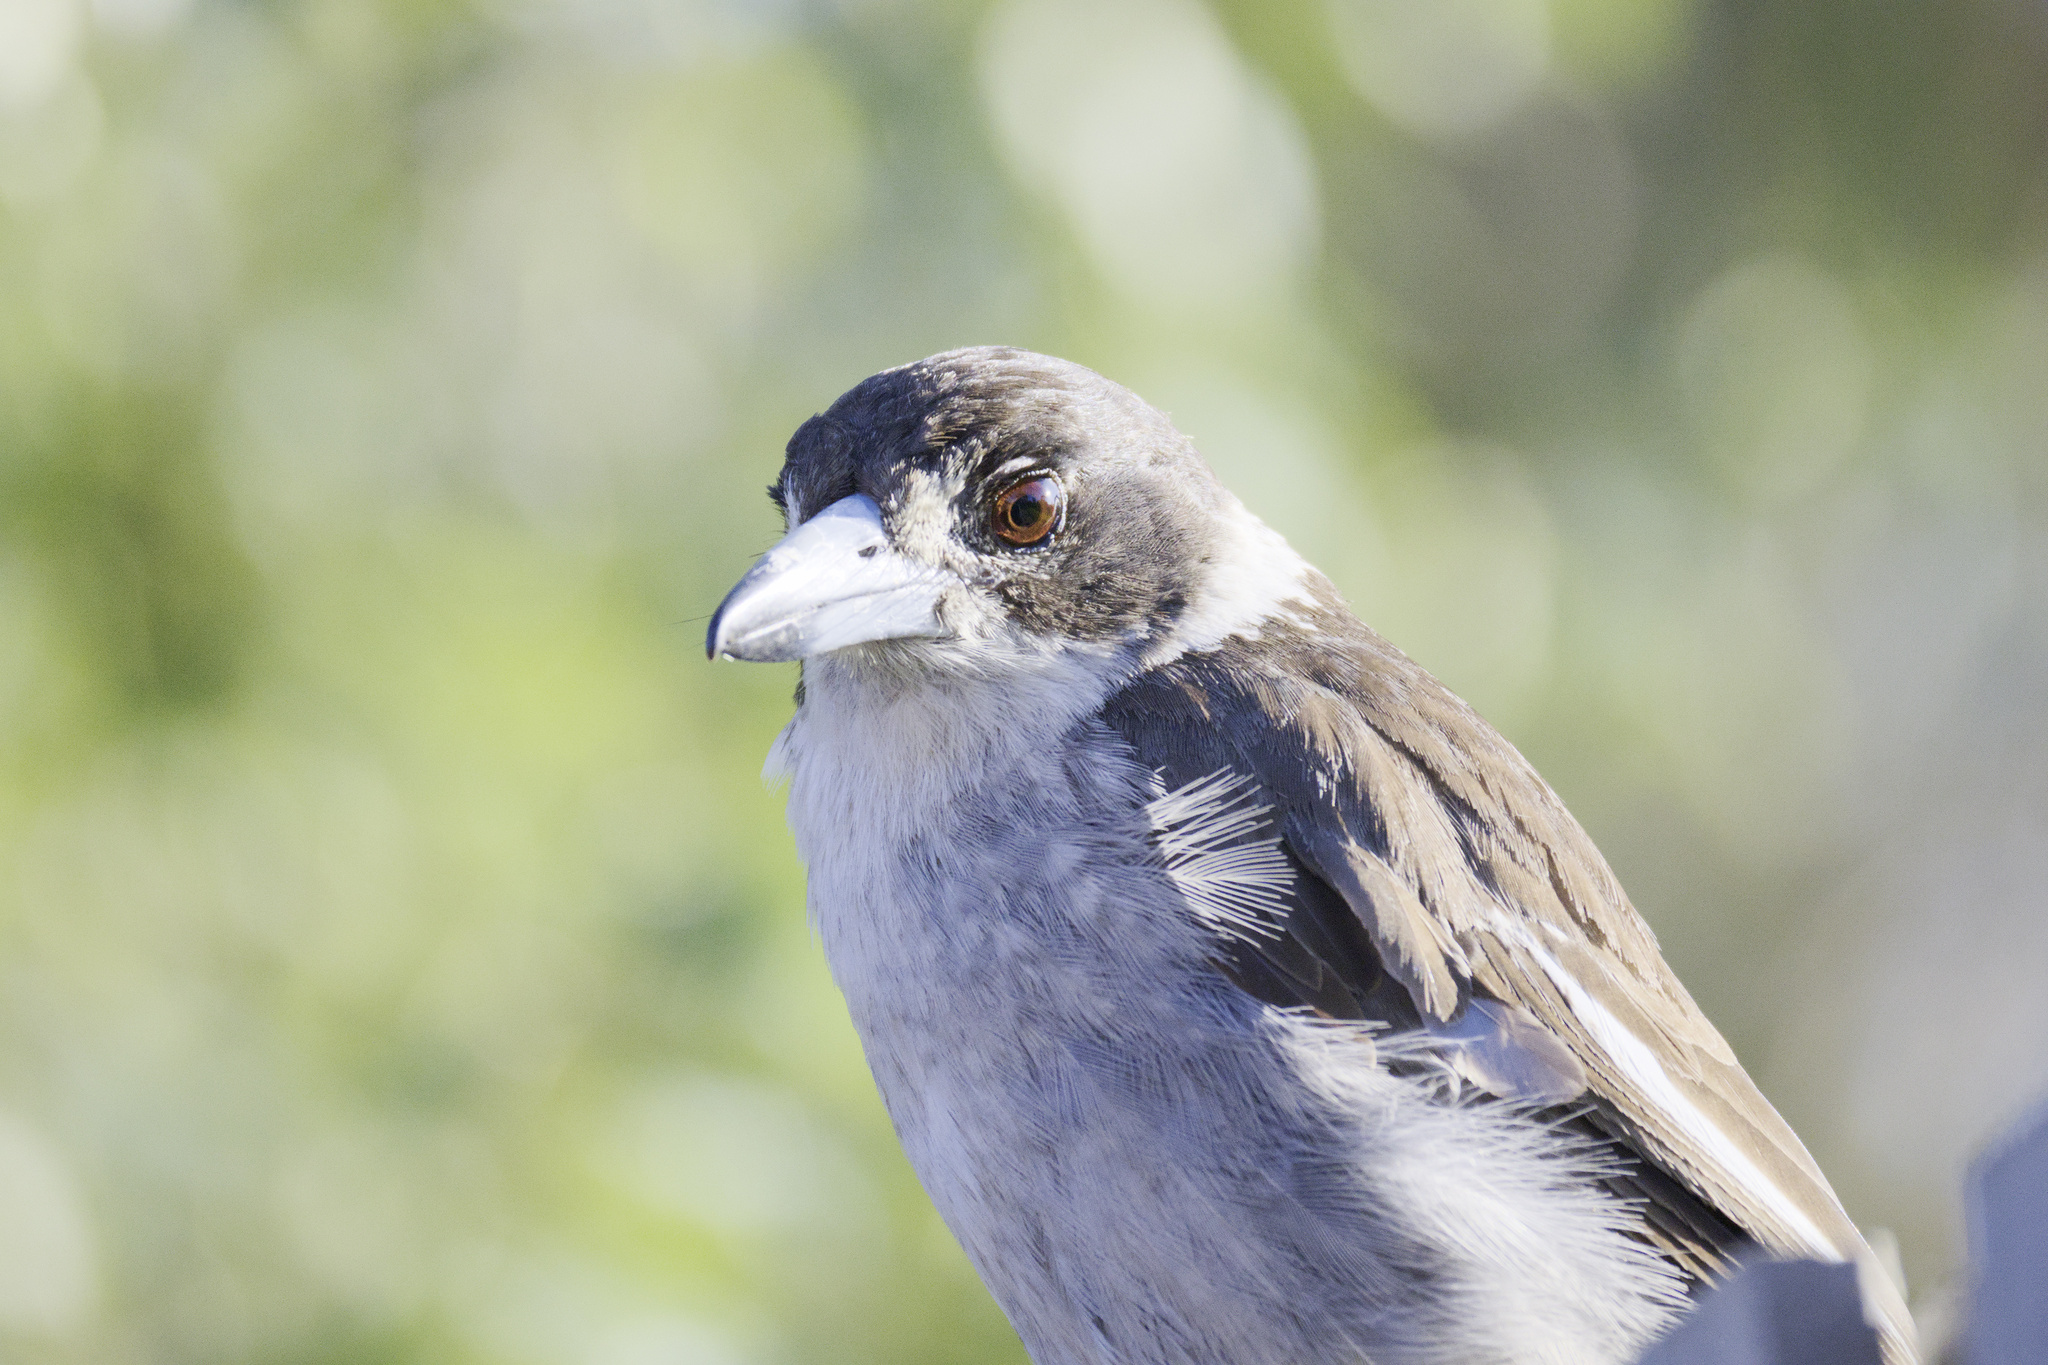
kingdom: Animalia
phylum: Chordata
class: Aves
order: Passeriformes
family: Cracticidae
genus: Cracticus
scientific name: Cracticus torquatus
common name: Grey butcherbird
